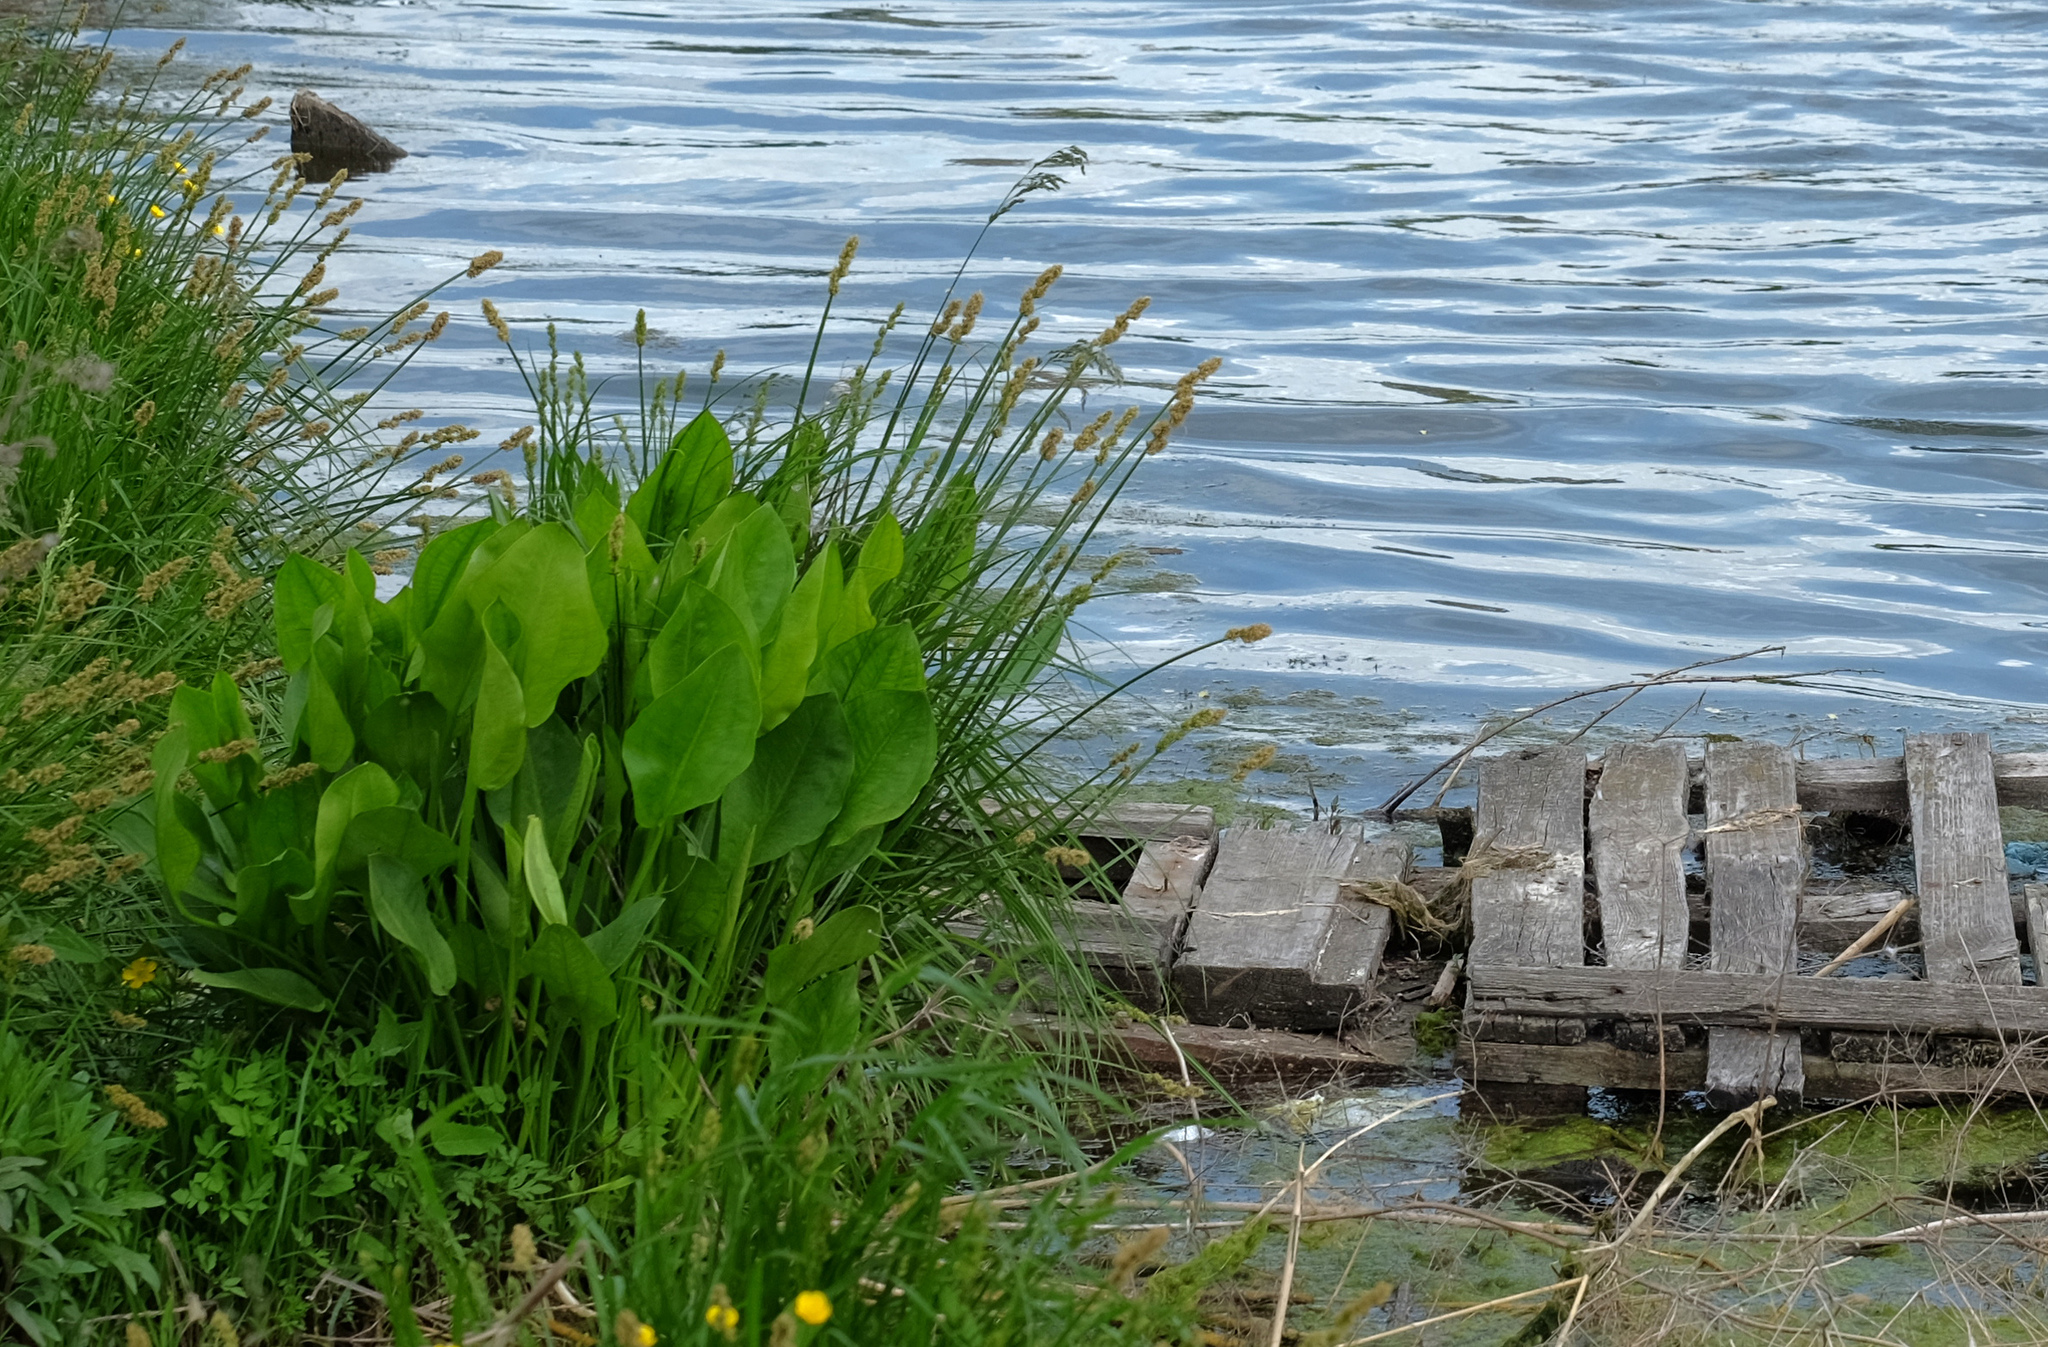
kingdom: Plantae
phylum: Tracheophyta
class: Liliopsida
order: Alismatales
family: Alismataceae
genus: Alisma
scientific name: Alisma plantago-aquatica
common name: Water-plantain
